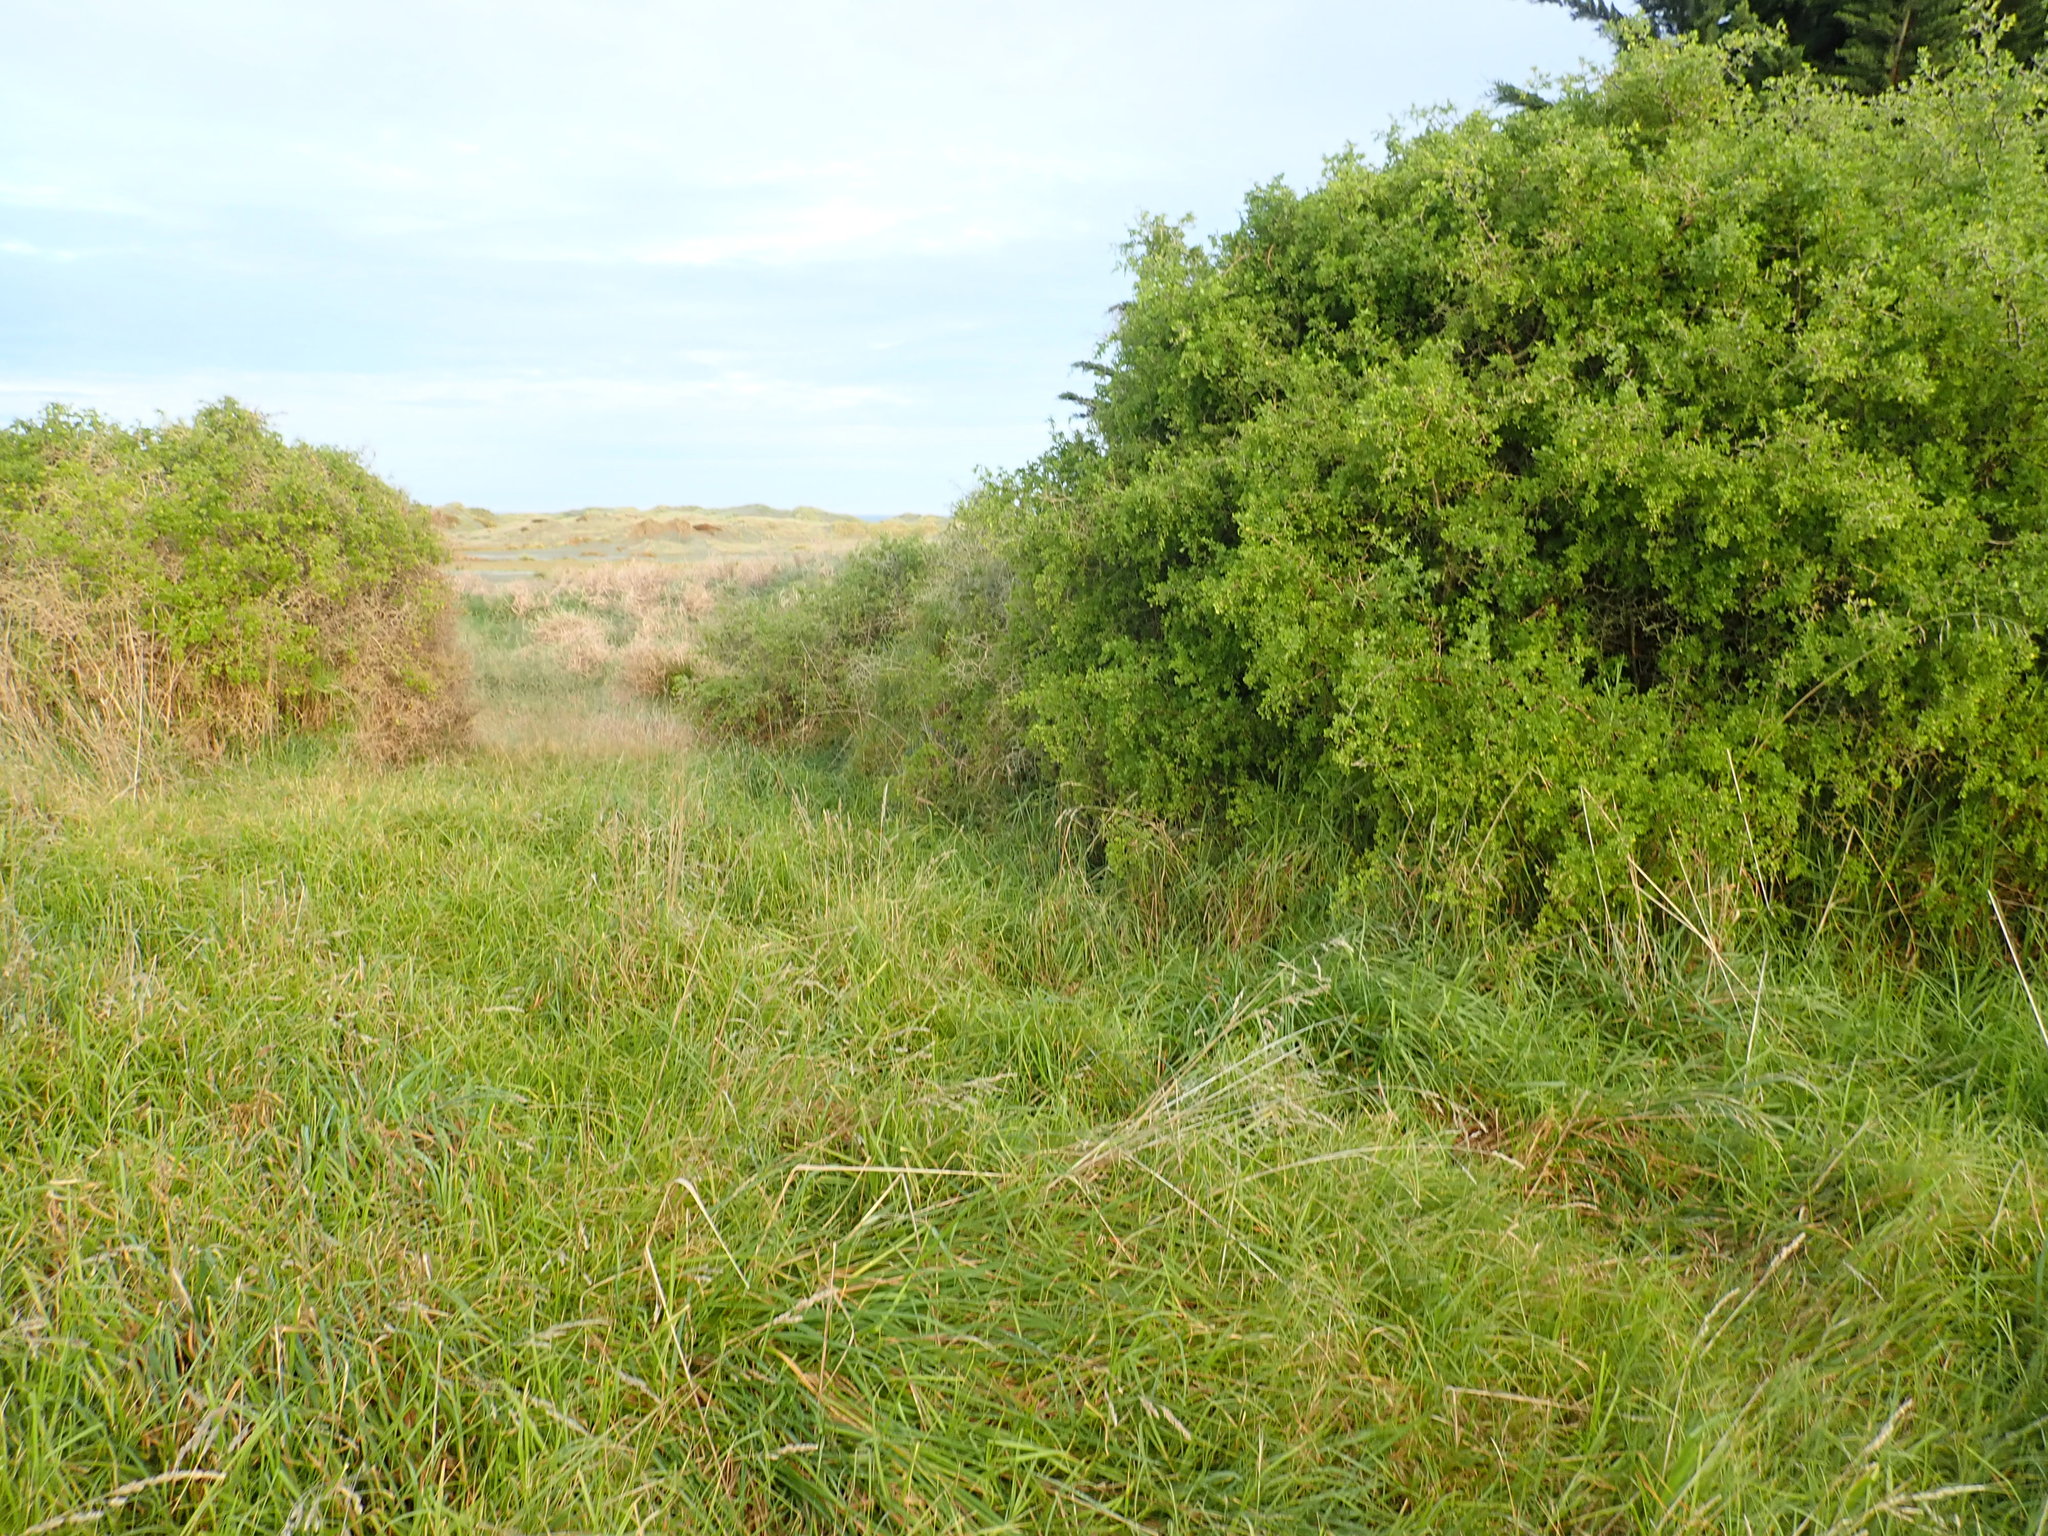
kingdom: Plantae
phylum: Tracheophyta
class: Magnoliopsida
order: Solanales
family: Solanaceae
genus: Lycium
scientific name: Lycium ferocissimum
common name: African boxthorn
